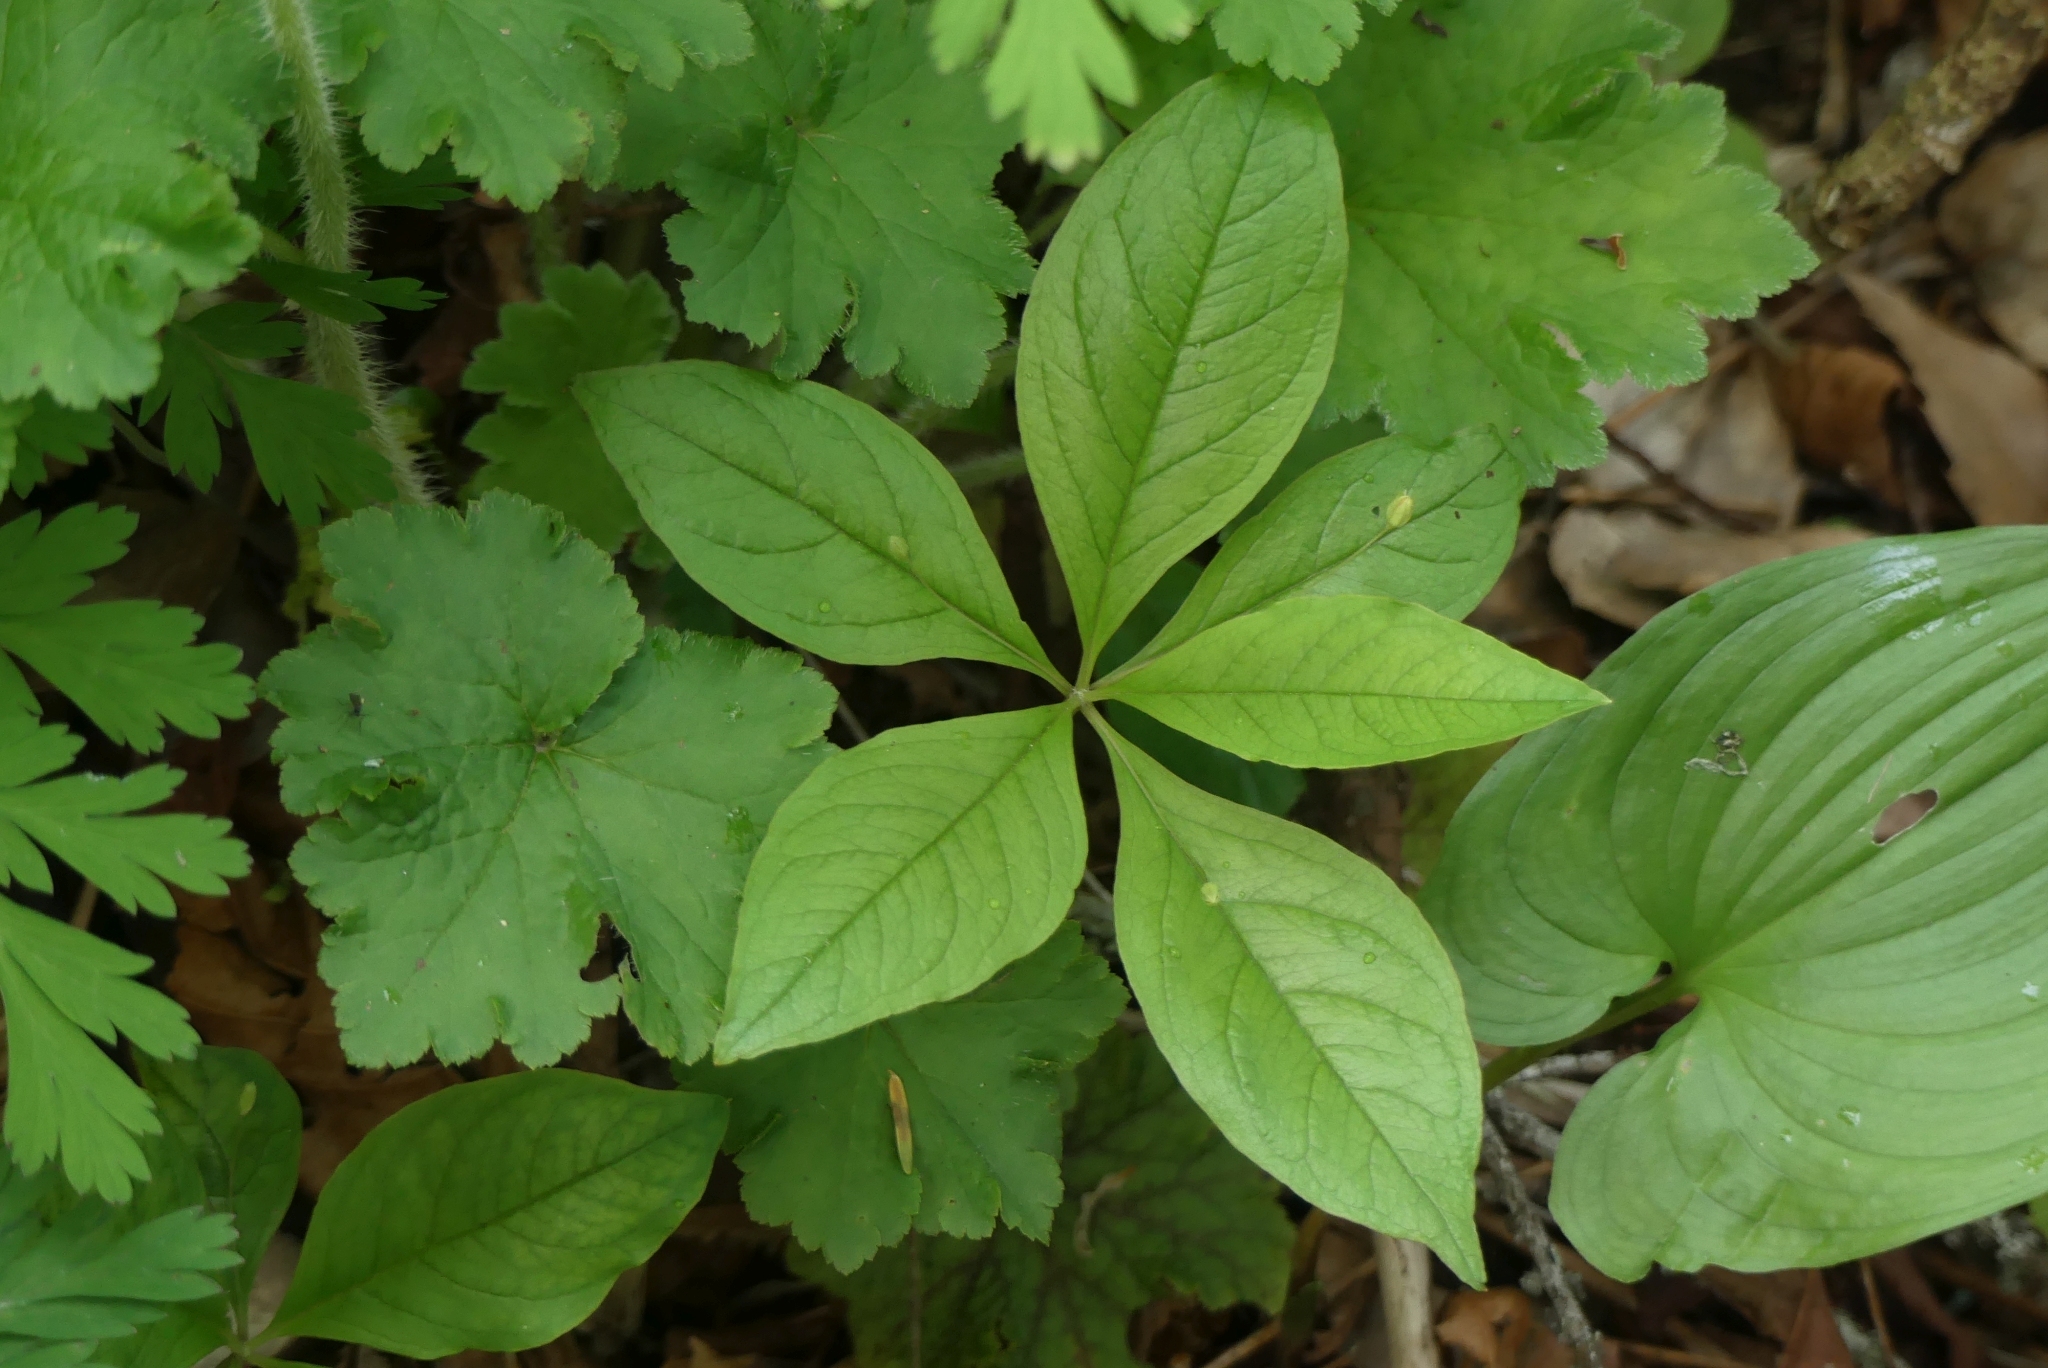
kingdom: Plantae
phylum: Tracheophyta
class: Magnoliopsida
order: Ericales
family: Primulaceae
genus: Lysimachia
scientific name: Lysimachia latifolia
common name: Pacific starflower
